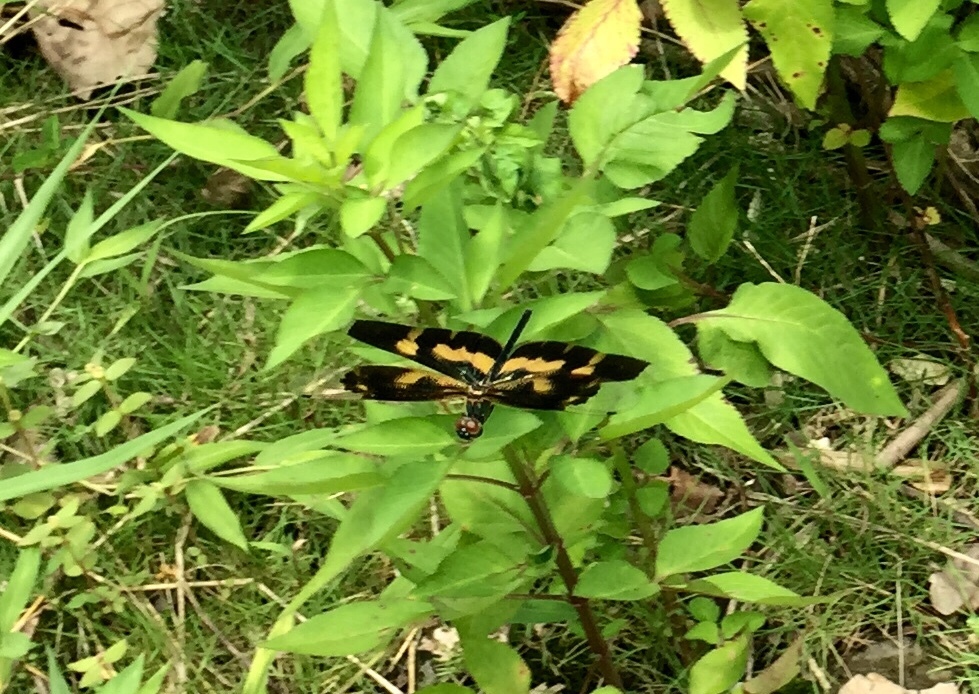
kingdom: Animalia
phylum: Arthropoda
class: Insecta
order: Odonata
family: Libellulidae
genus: Rhyothemis
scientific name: Rhyothemis variegata
